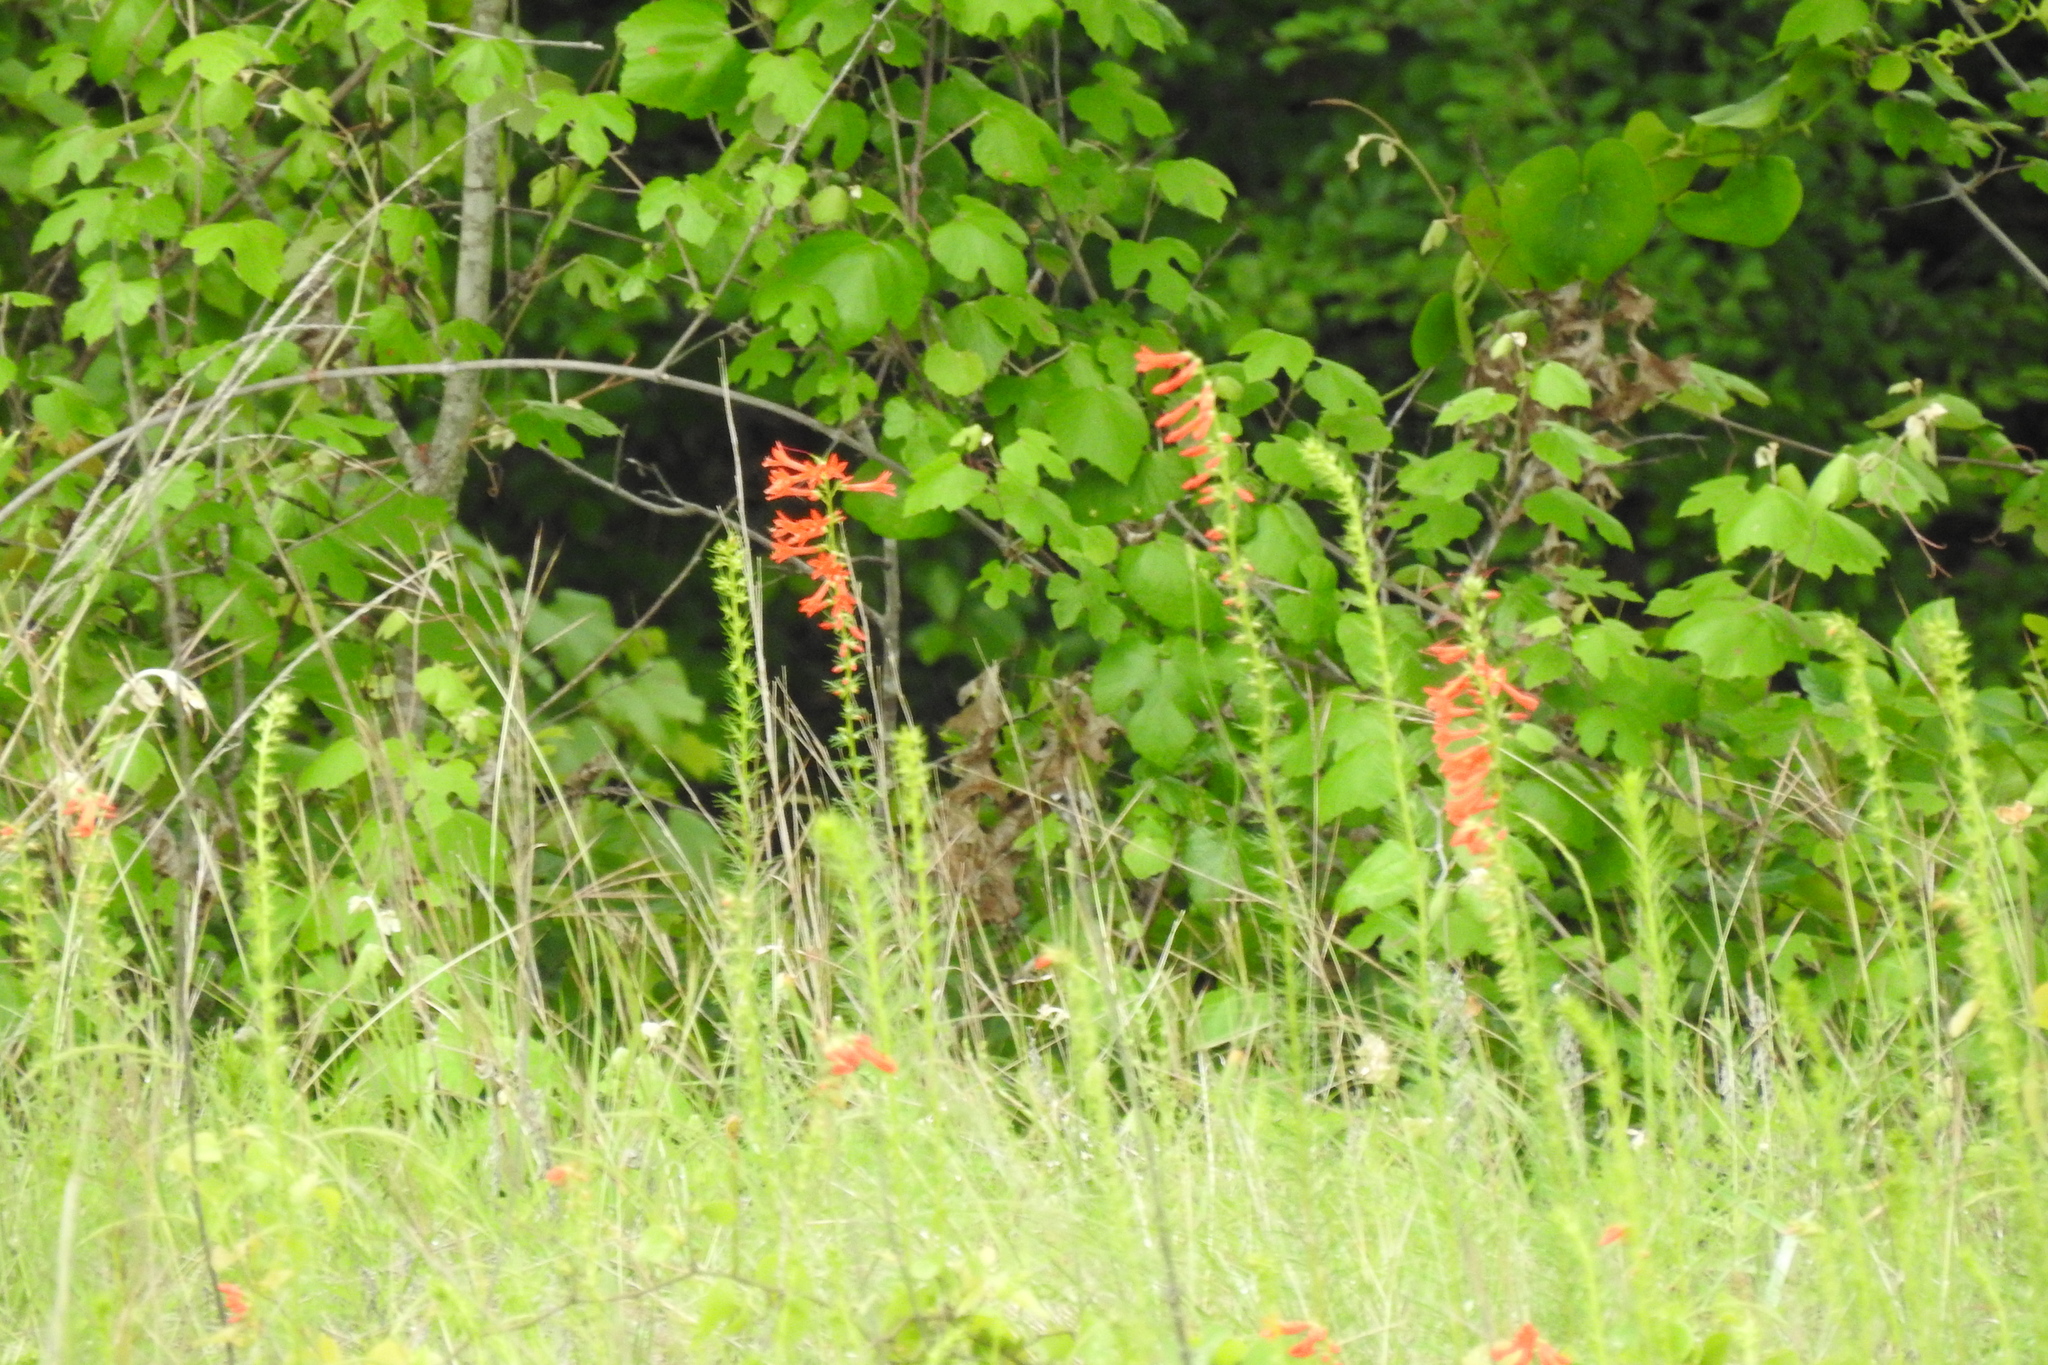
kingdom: Plantae
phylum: Tracheophyta
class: Magnoliopsida
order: Ericales
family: Polemoniaceae
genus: Ipomopsis
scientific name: Ipomopsis rubra
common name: Skyrocket
